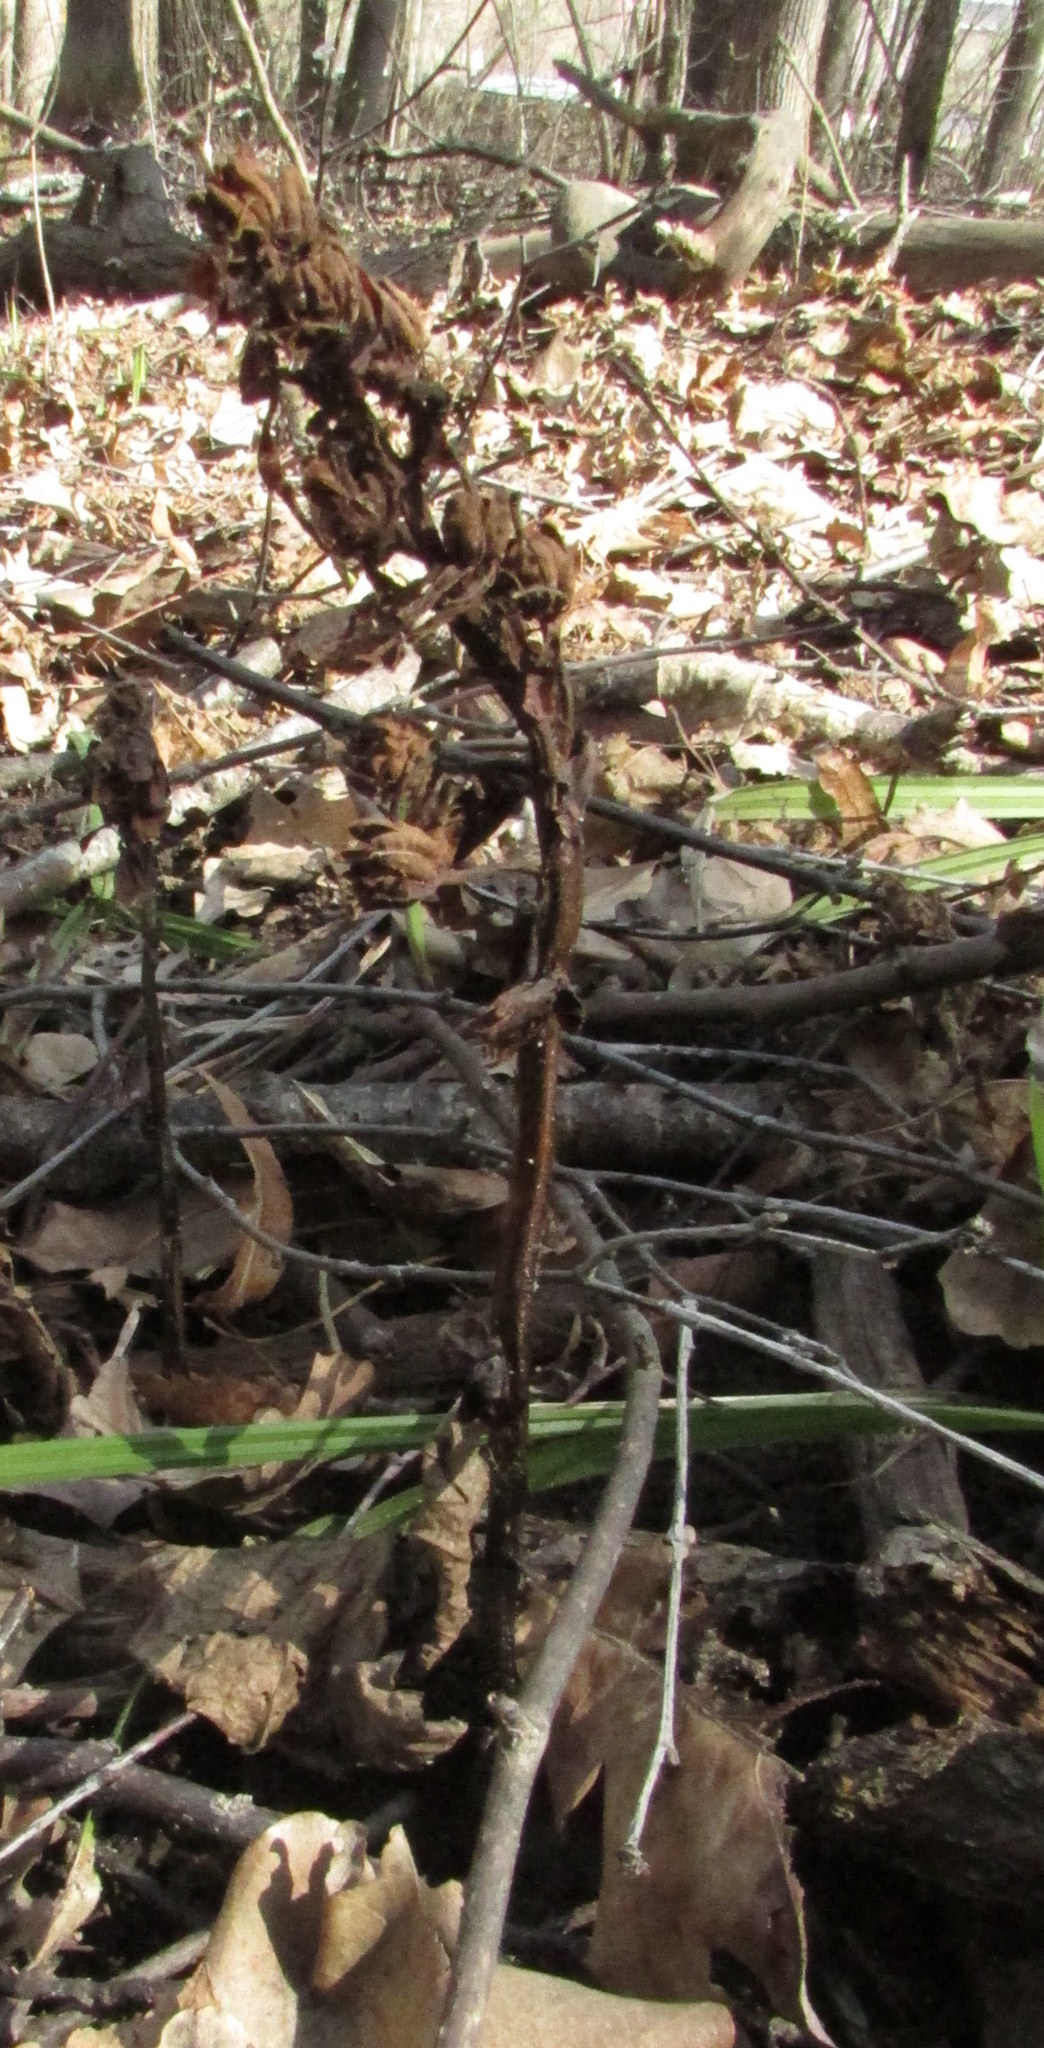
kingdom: Plantae
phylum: Tracheophyta
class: Magnoliopsida
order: Ericales
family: Ericaceae
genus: Hypopitys
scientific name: Hypopitys monotropa
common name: Yellow bird's-nest
